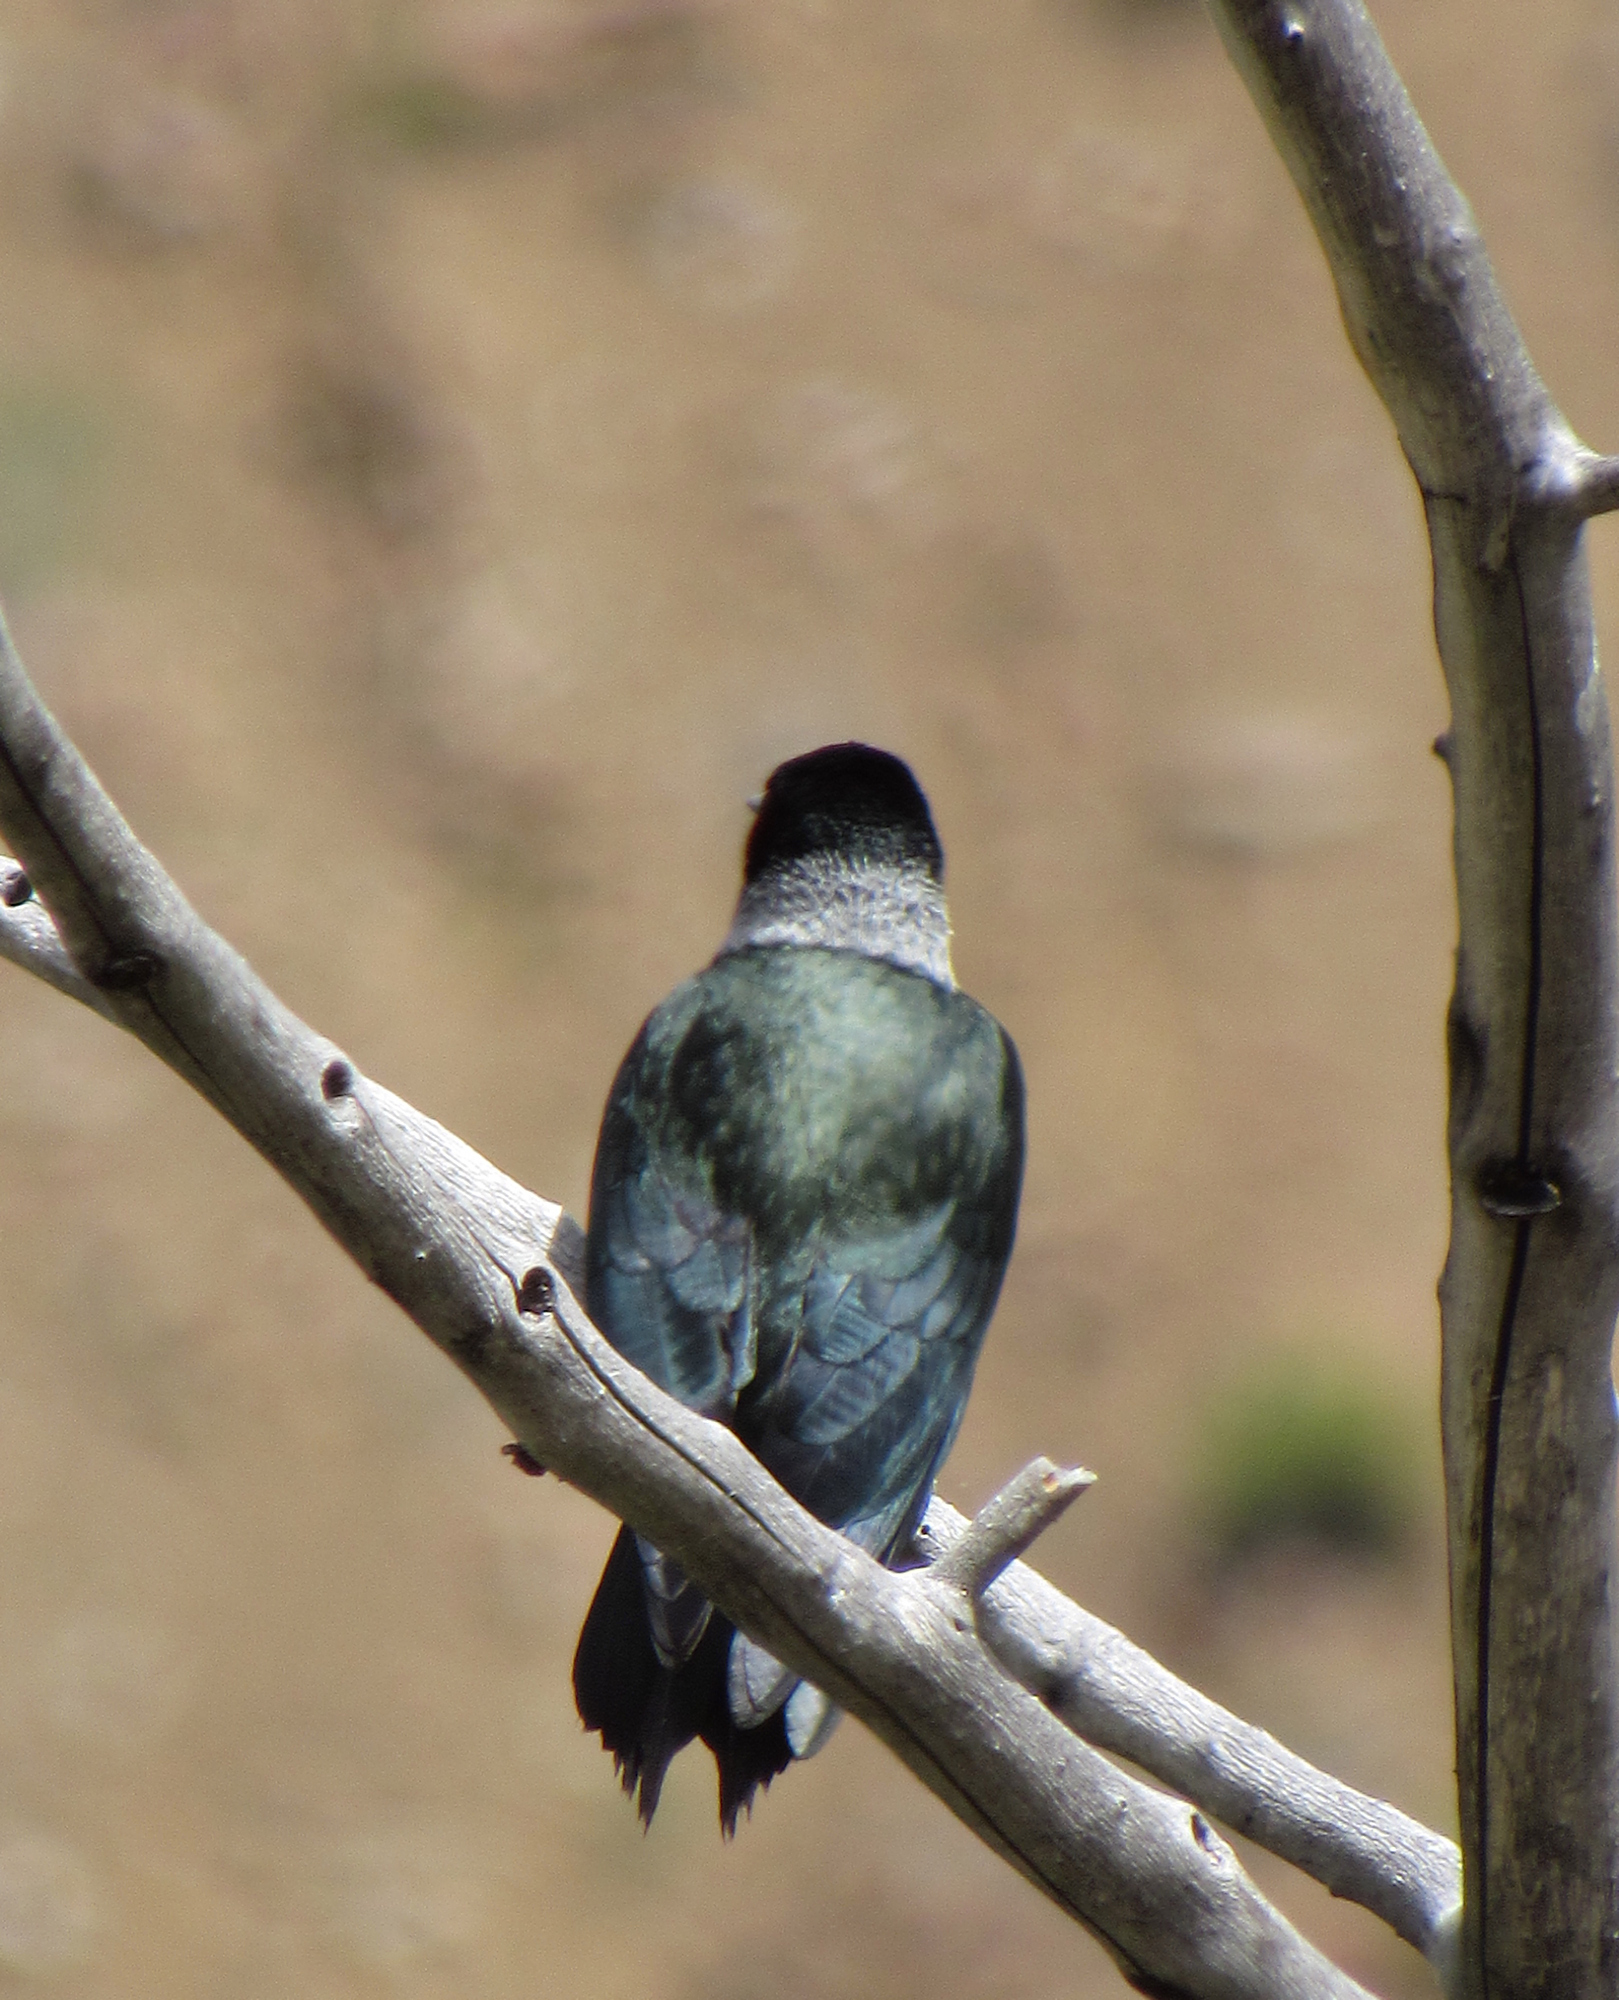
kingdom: Animalia
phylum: Chordata
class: Aves
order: Piciformes
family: Picidae
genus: Melanerpes
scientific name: Melanerpes lewis
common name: Lewis's woodpecker
